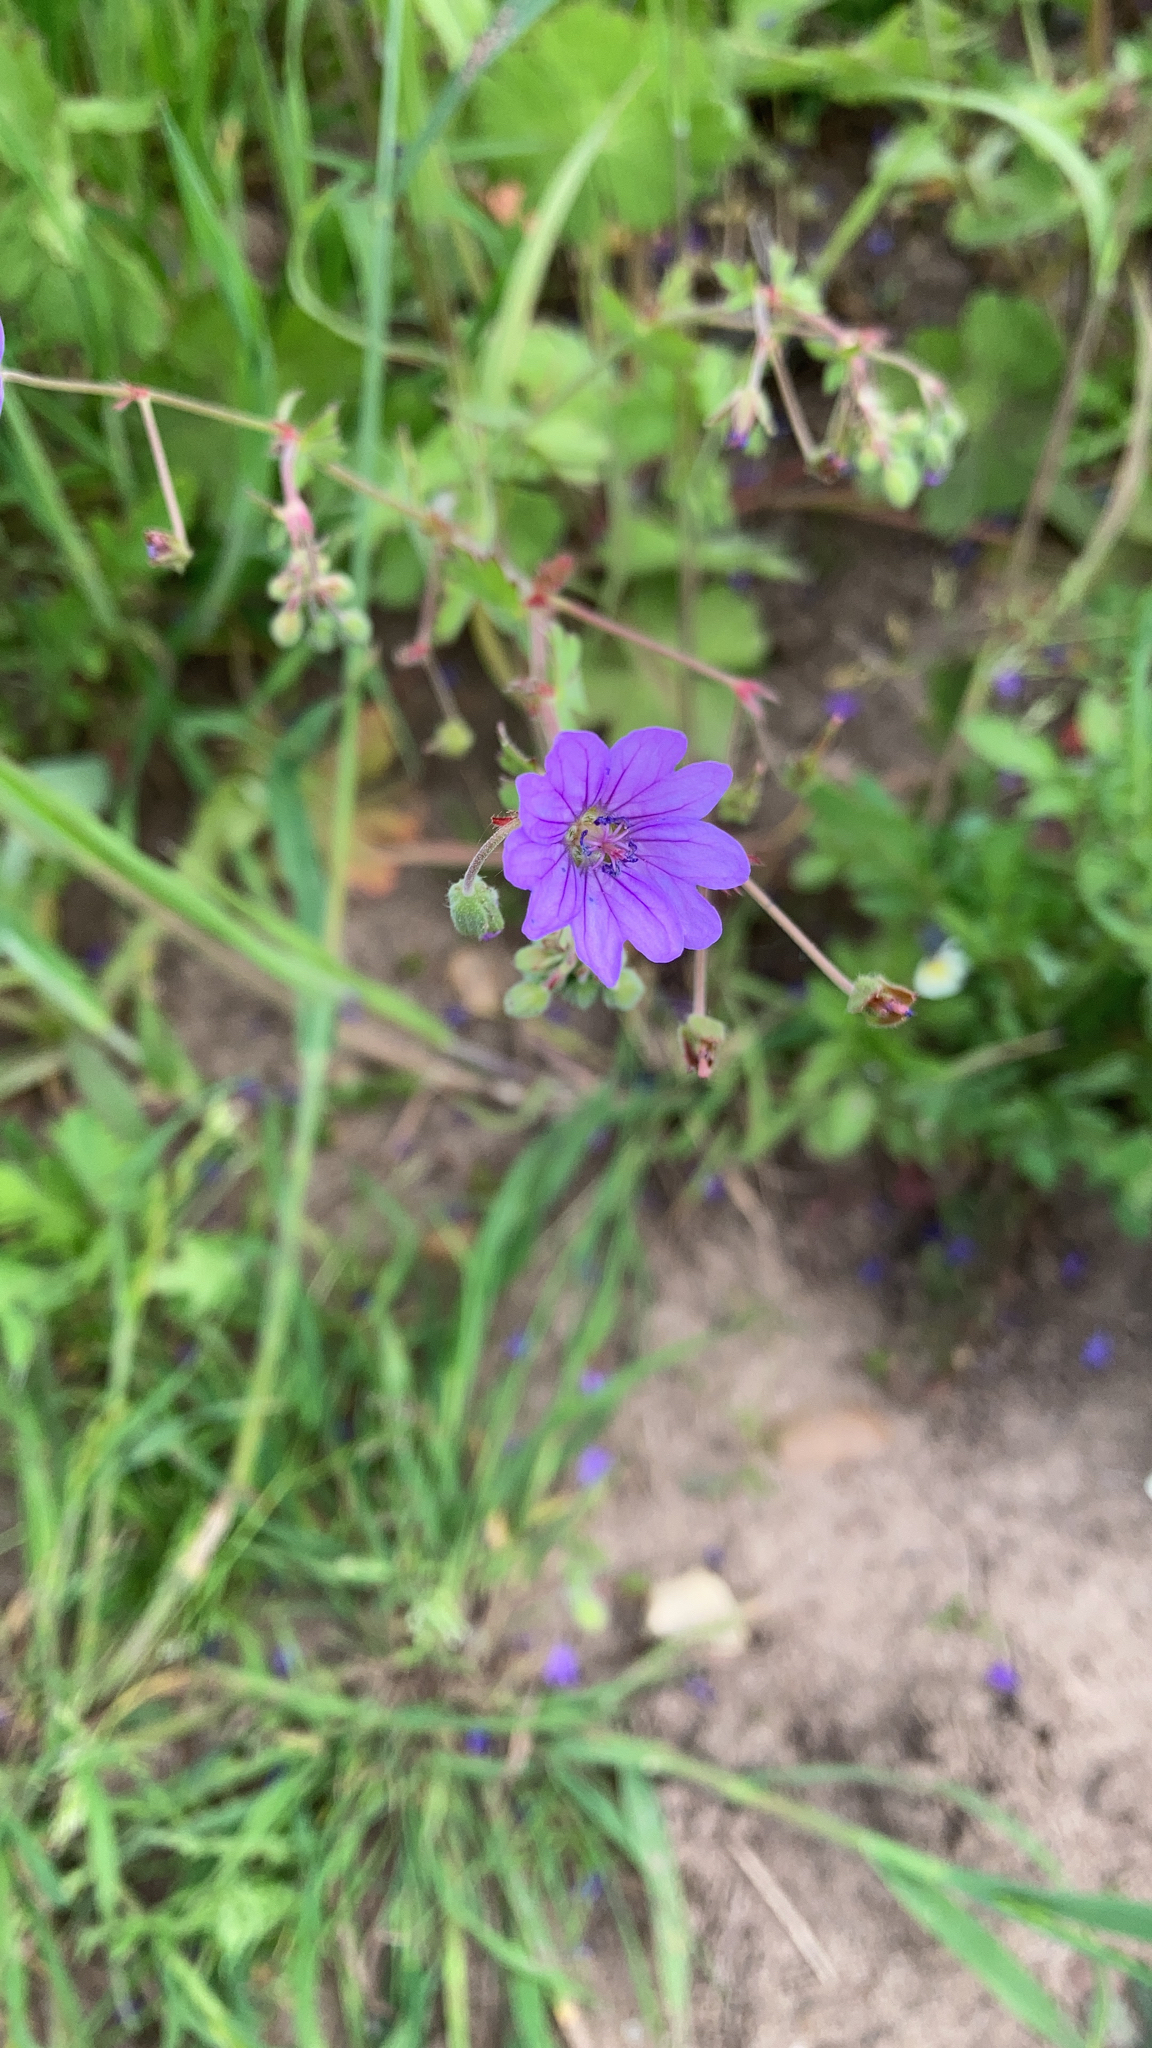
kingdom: Plantae
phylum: Tracheophyta
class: Magnoliopsida
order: Geraniales
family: Geraniaceae
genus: Geranium
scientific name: Geranium pyrenaicum
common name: Hedgerow crane's-bill
